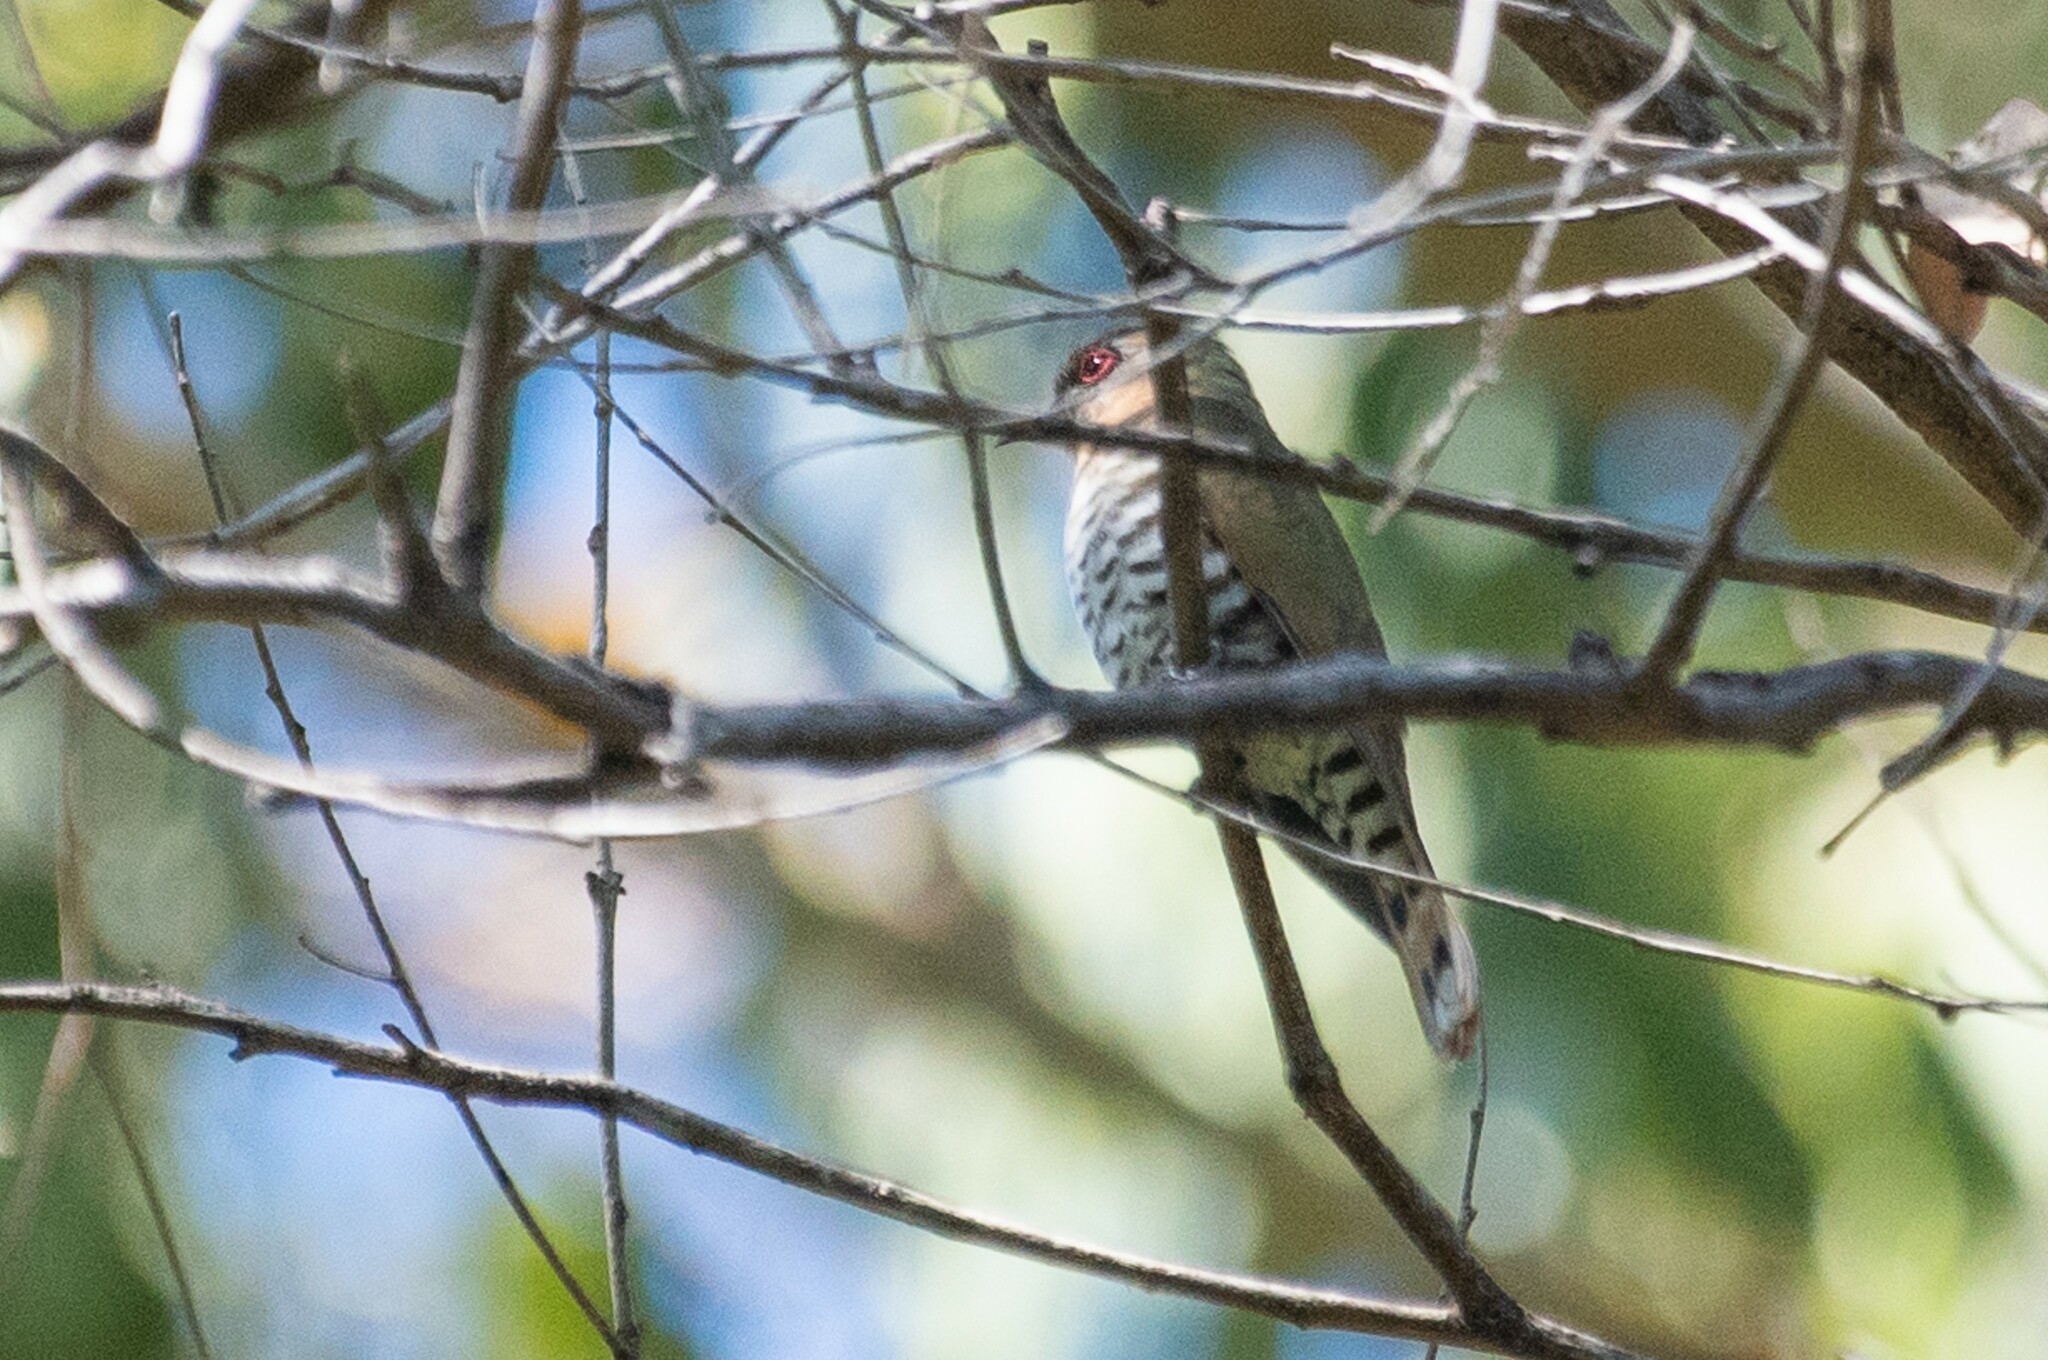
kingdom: Animalia
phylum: Chordata
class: Aves
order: Cuculiformes
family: Cuculidae
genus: Chrysococcyx
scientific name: Chrysococcyx minutillus
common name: Little bronze cuckoo
